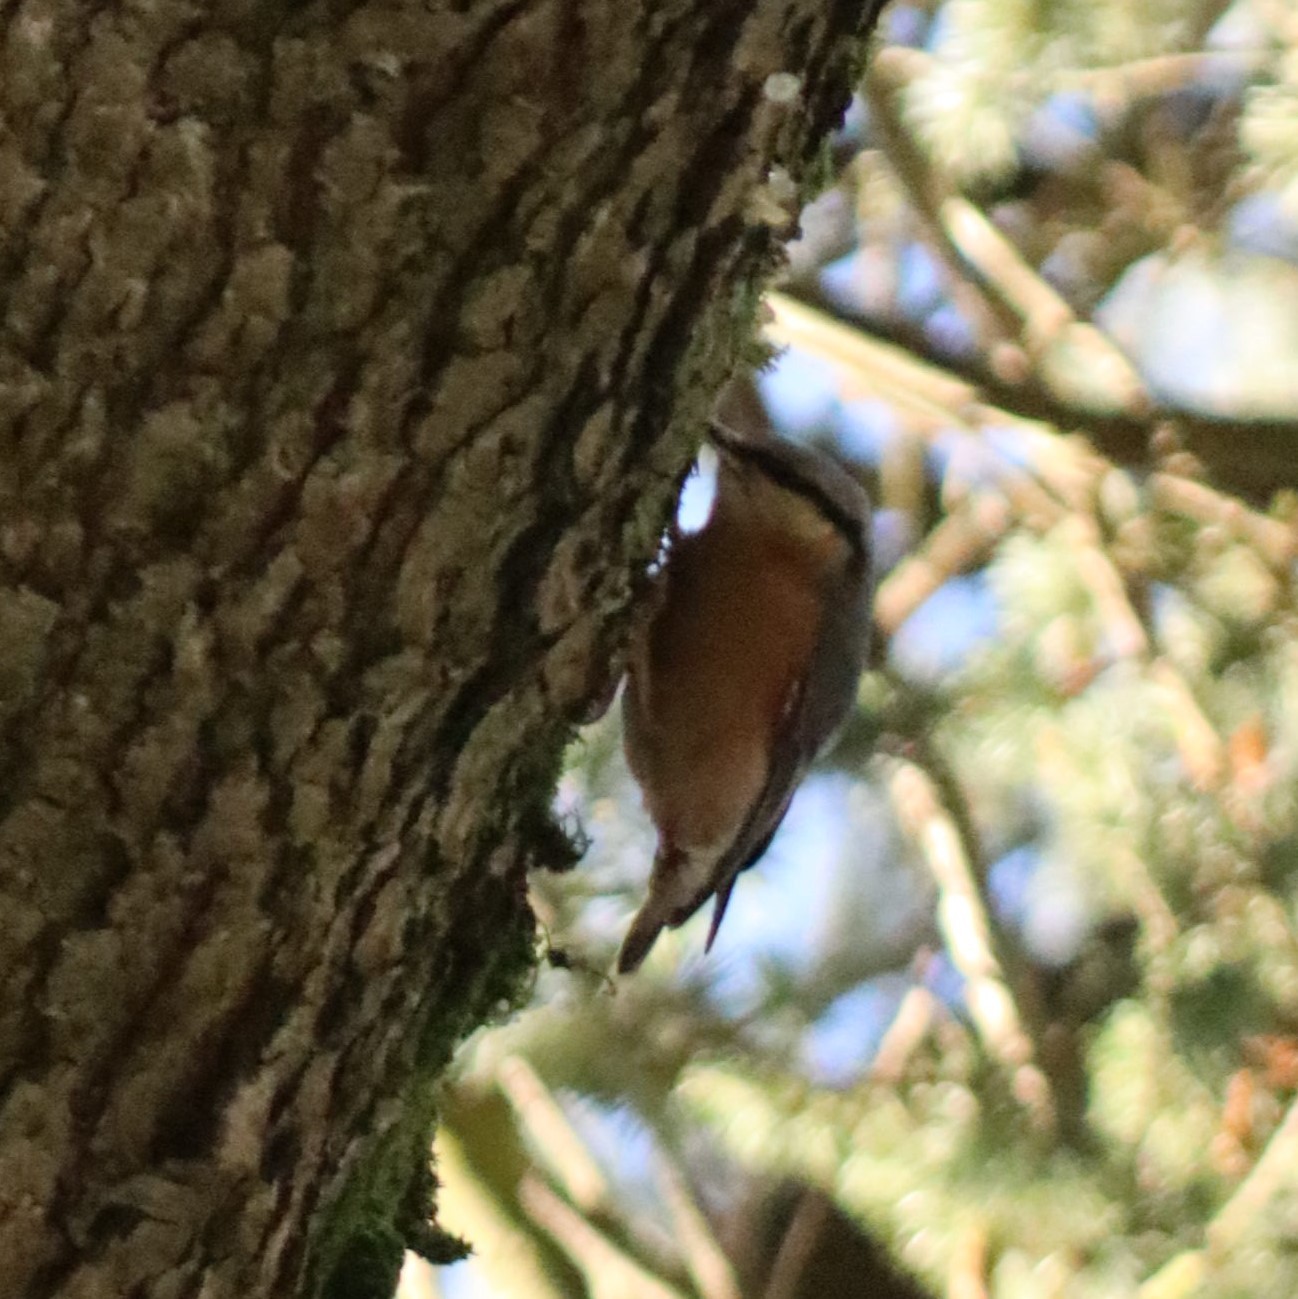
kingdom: Animalia
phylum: Chordata
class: Aves
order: Passeriformes
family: Sittidae
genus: Sitta
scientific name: Sitta europaea
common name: Eurasian nuthatch
